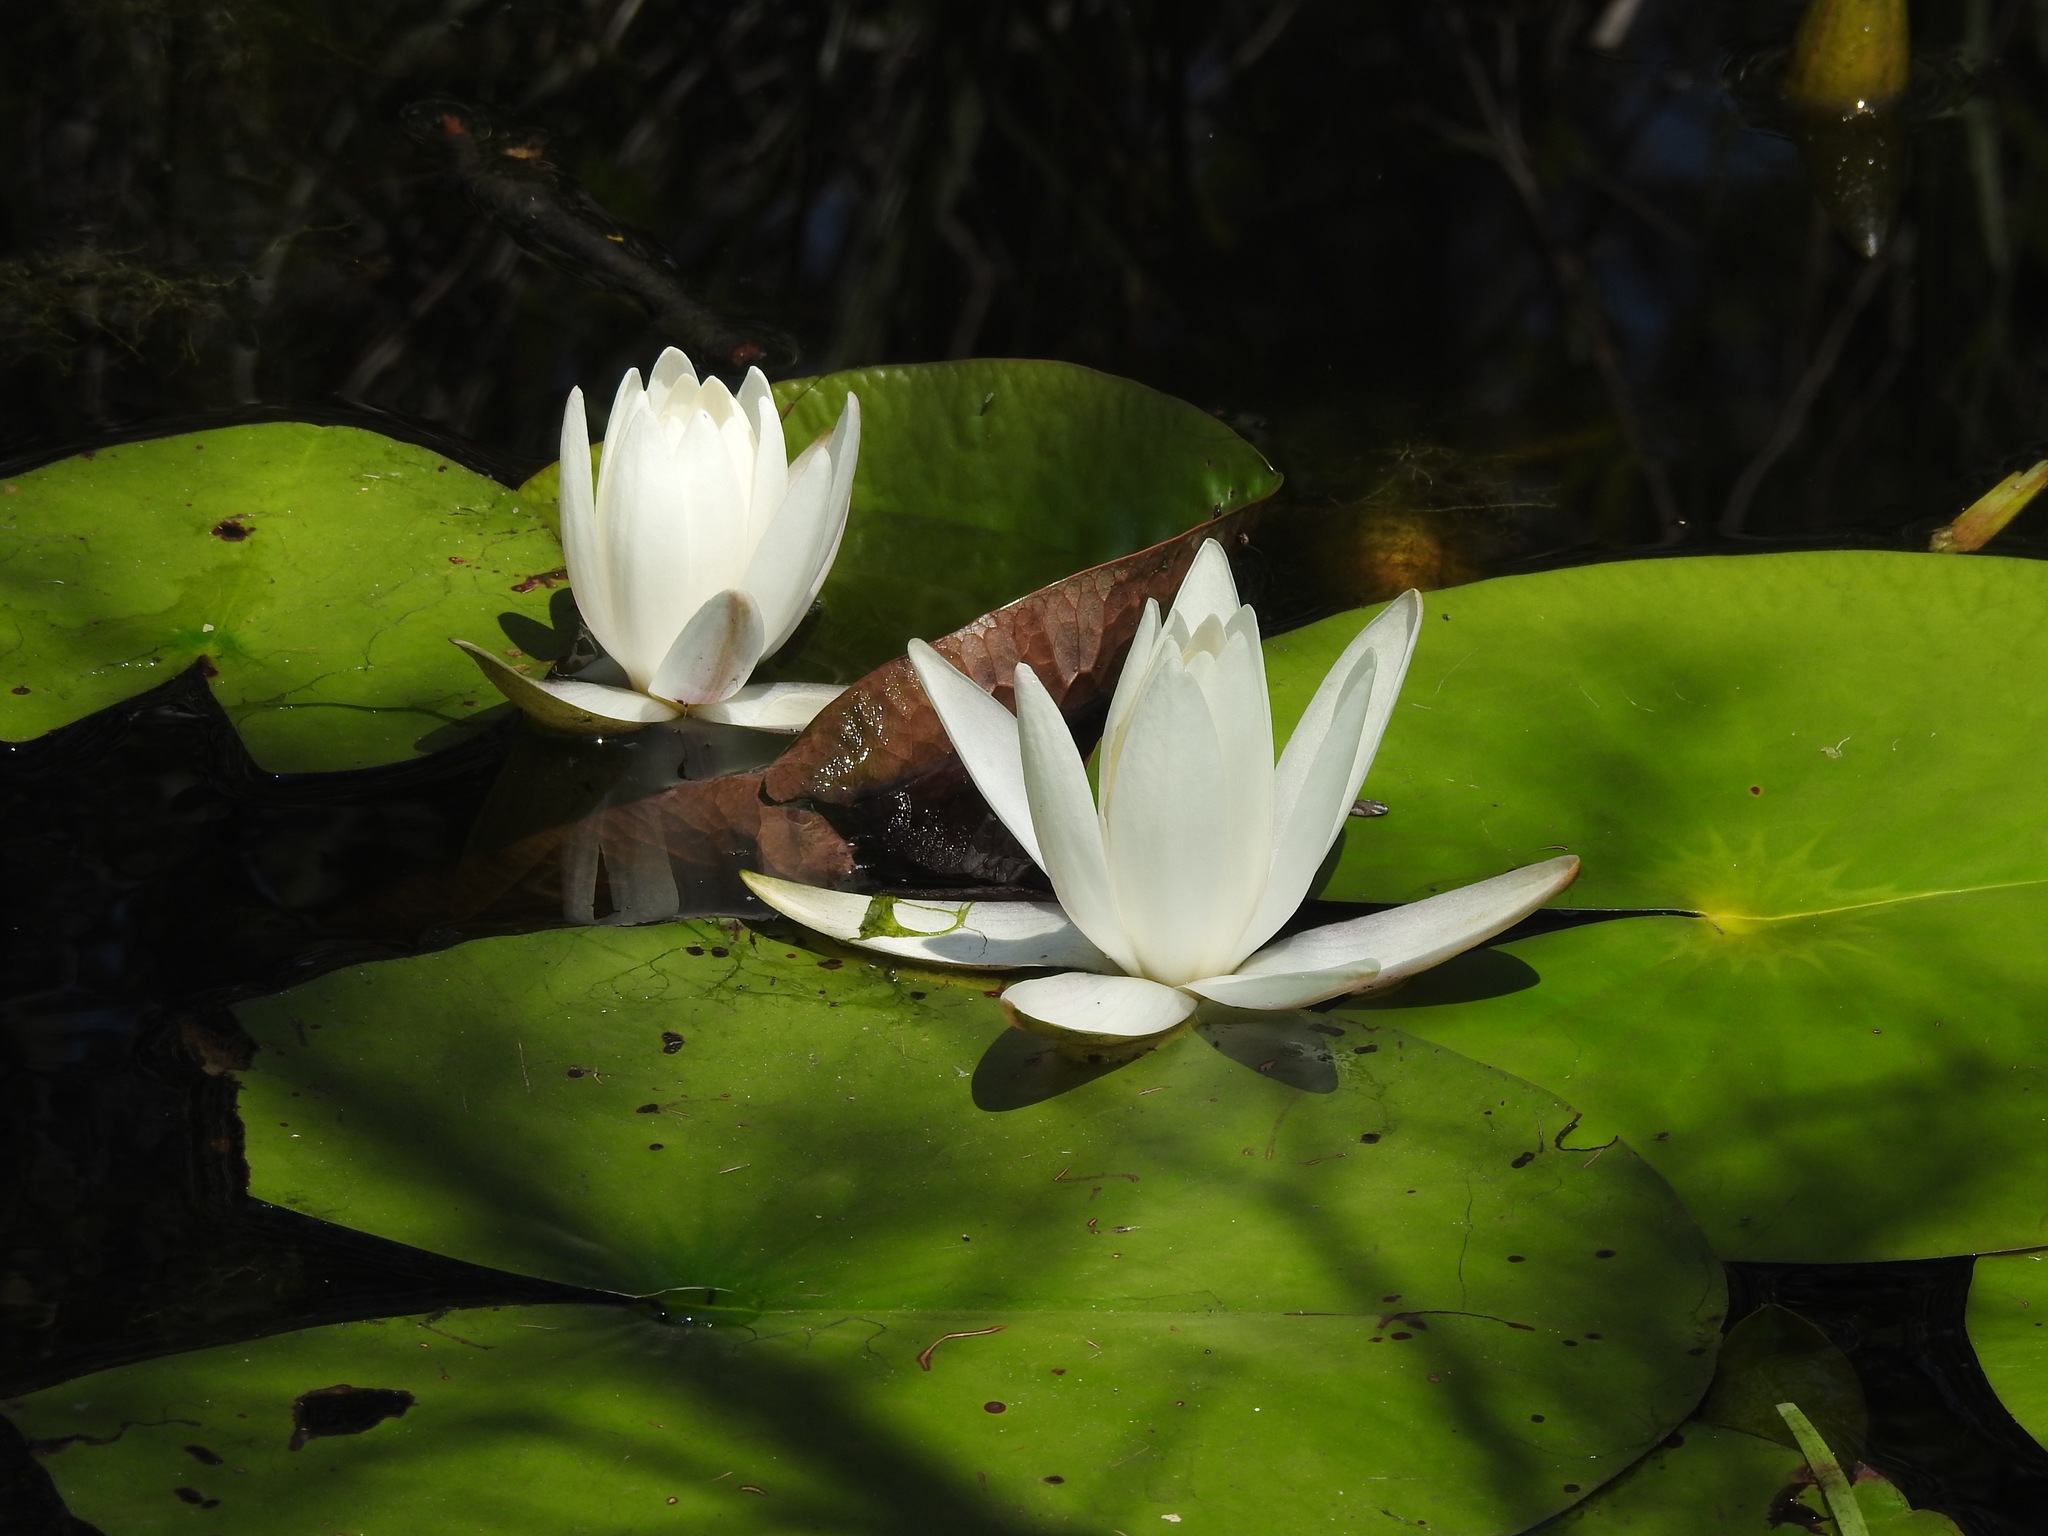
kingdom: Plantae
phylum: Tracheophyta
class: Magnoliopsida
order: Nymphaeales
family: Nymphaeaceae
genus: Nymphaea
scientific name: Nymphaea odorata
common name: Fragrant water-lily
